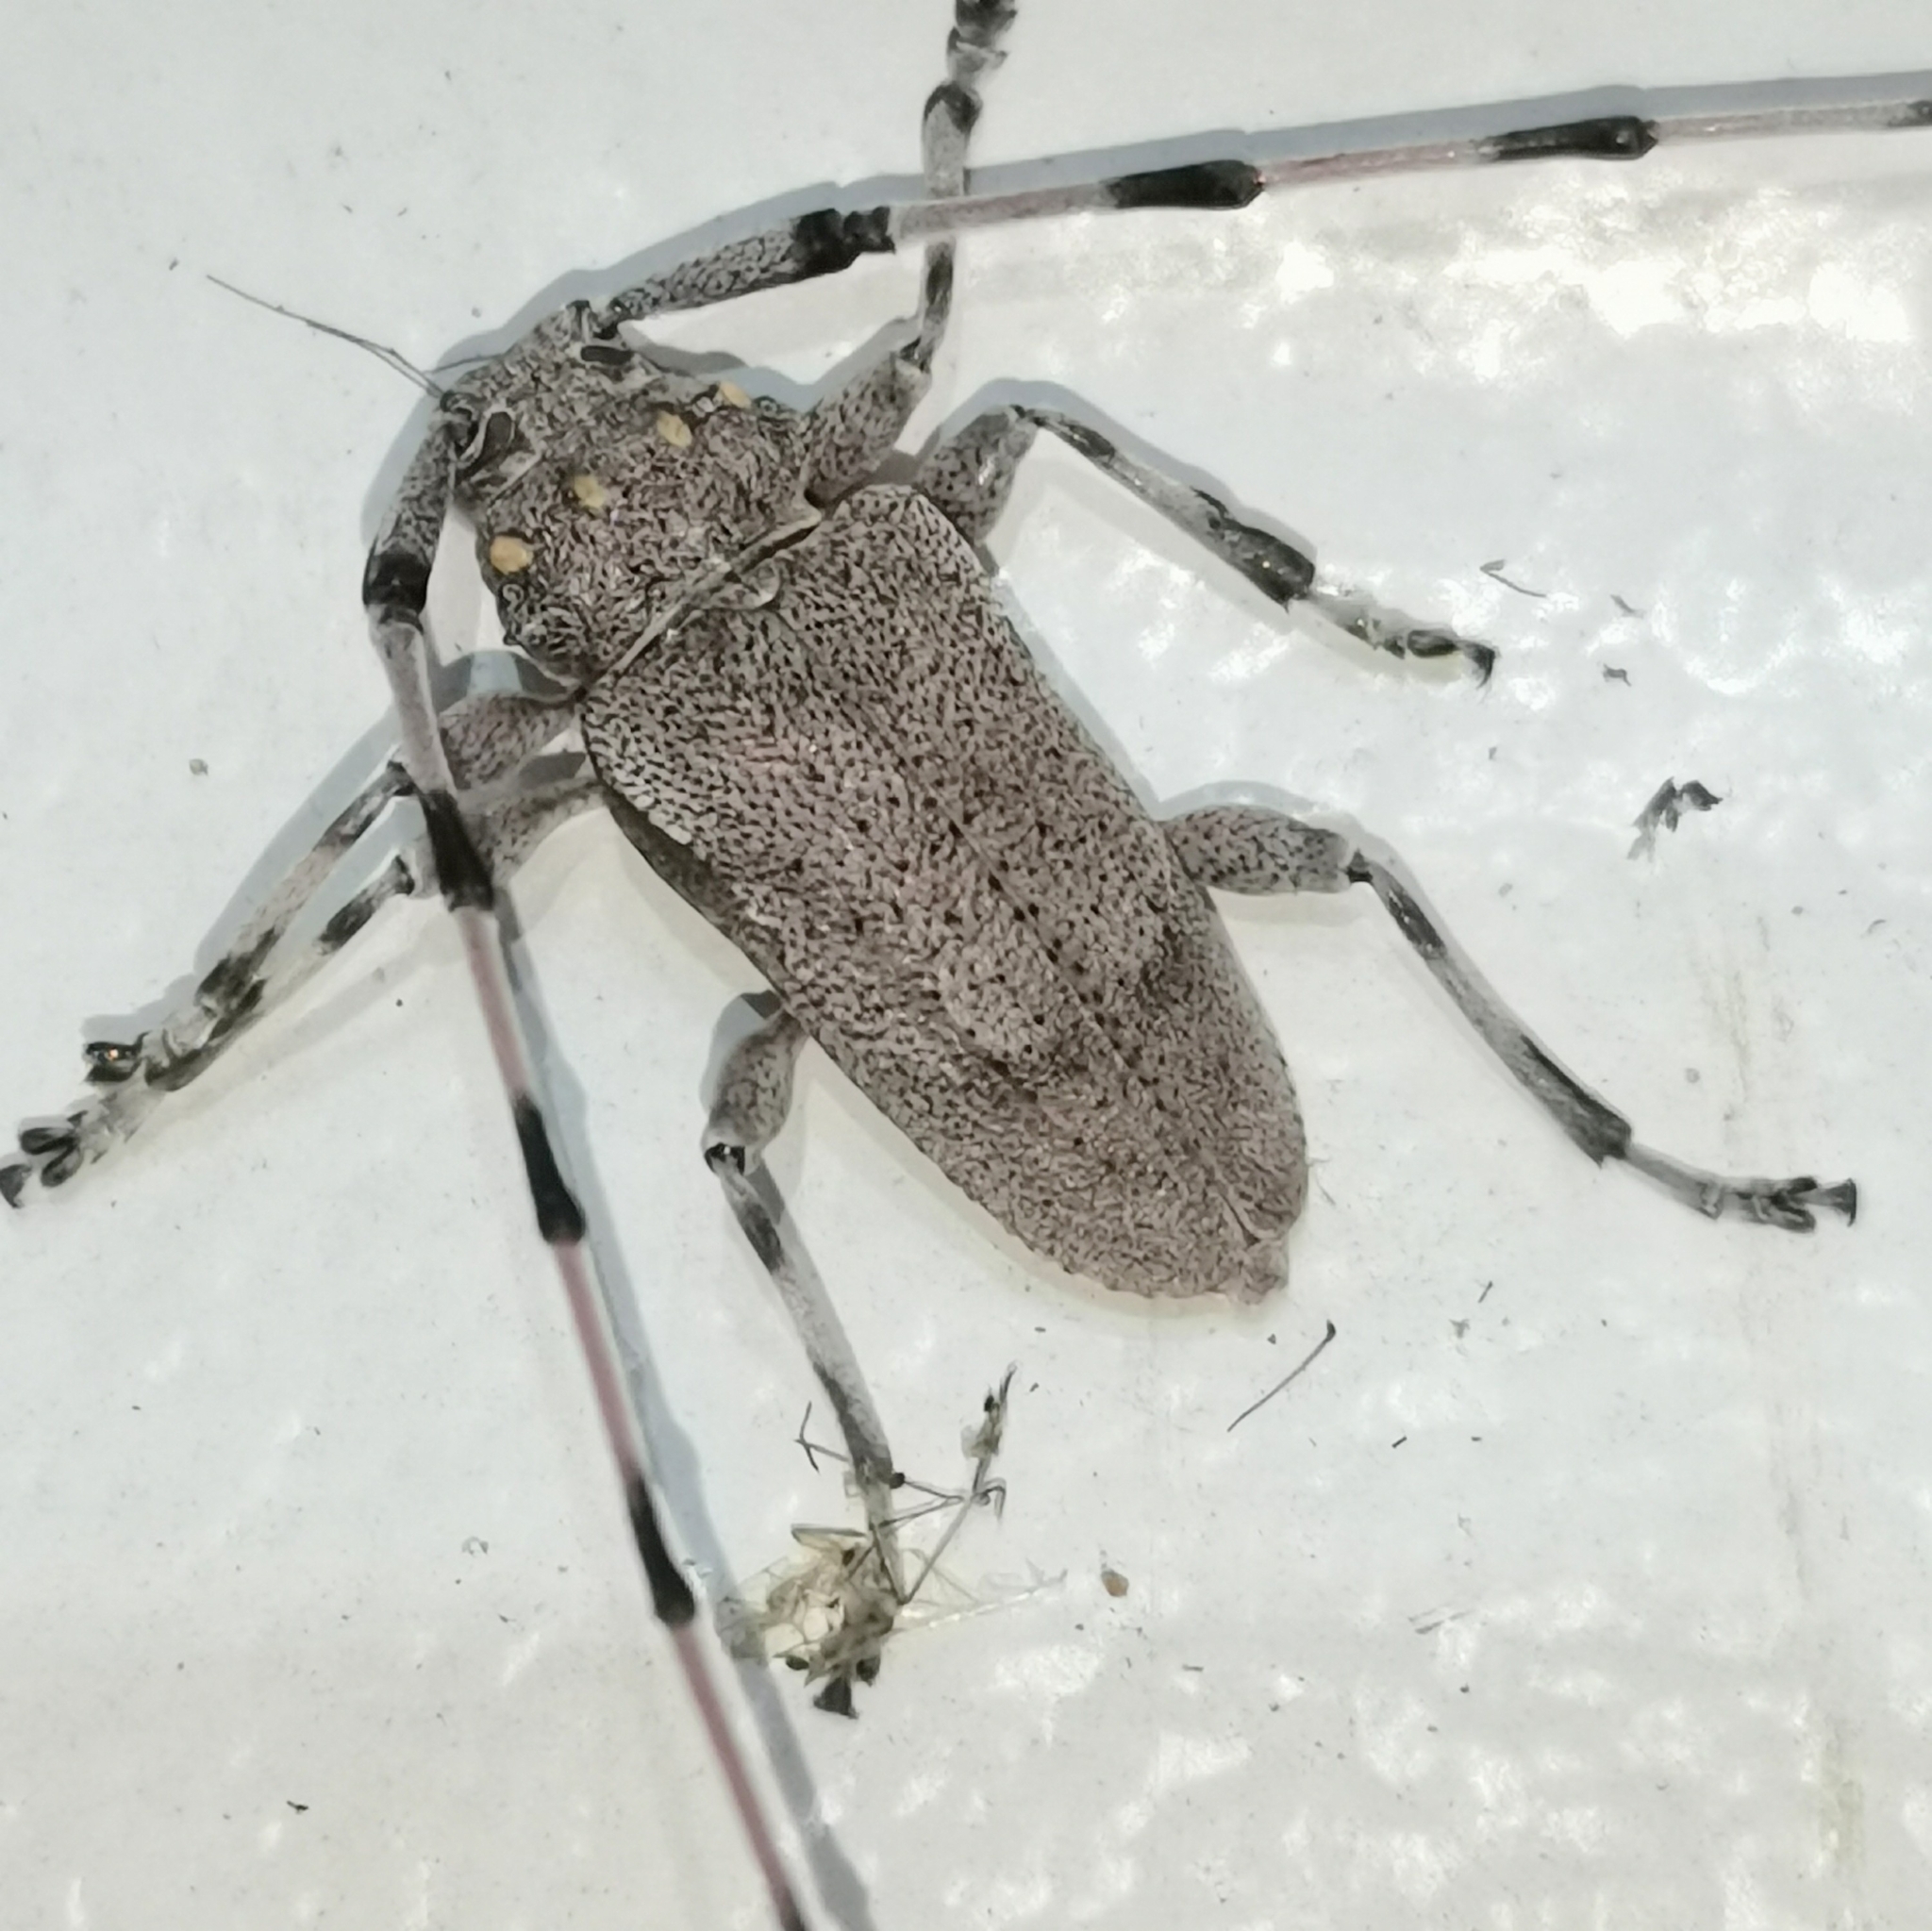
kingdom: Animalia
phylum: Arthropoda
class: Insecta
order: Coleoptera
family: Cerambycidae
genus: Acanthocinus
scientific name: Acanthocinus aedilis
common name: Timberman beetle
